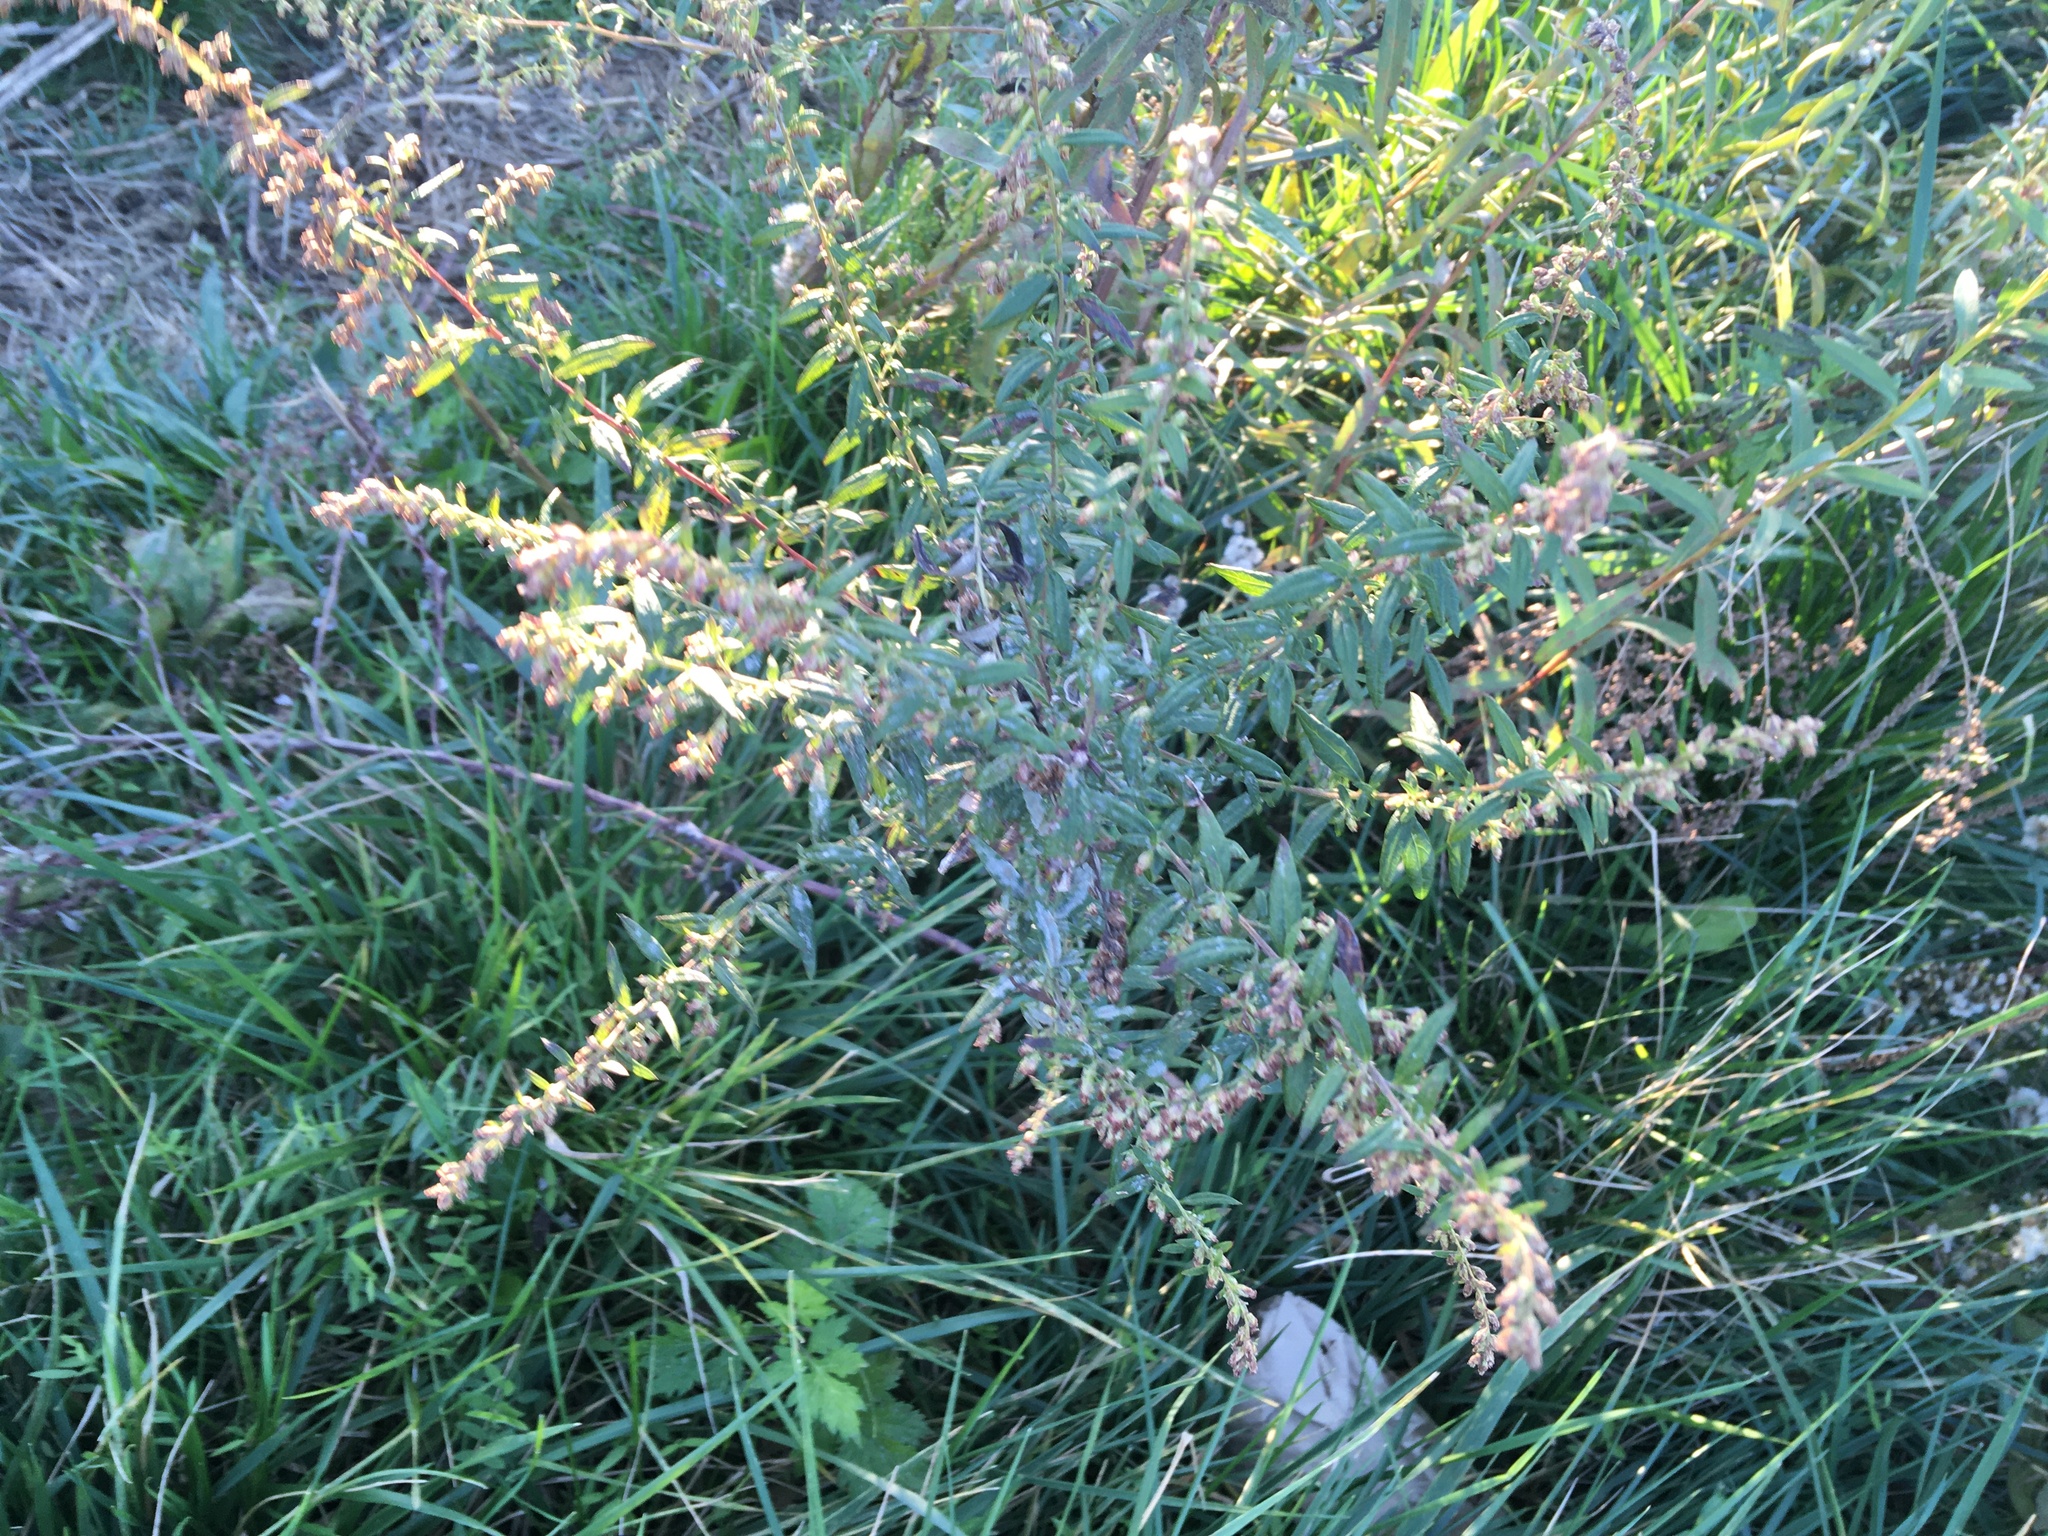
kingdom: Plantae
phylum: Tracheophyta
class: Magnoliopsida
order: Asterales
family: Asteraceae
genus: Artemisia
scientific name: Artemisia vulgaris
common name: Mugwort
